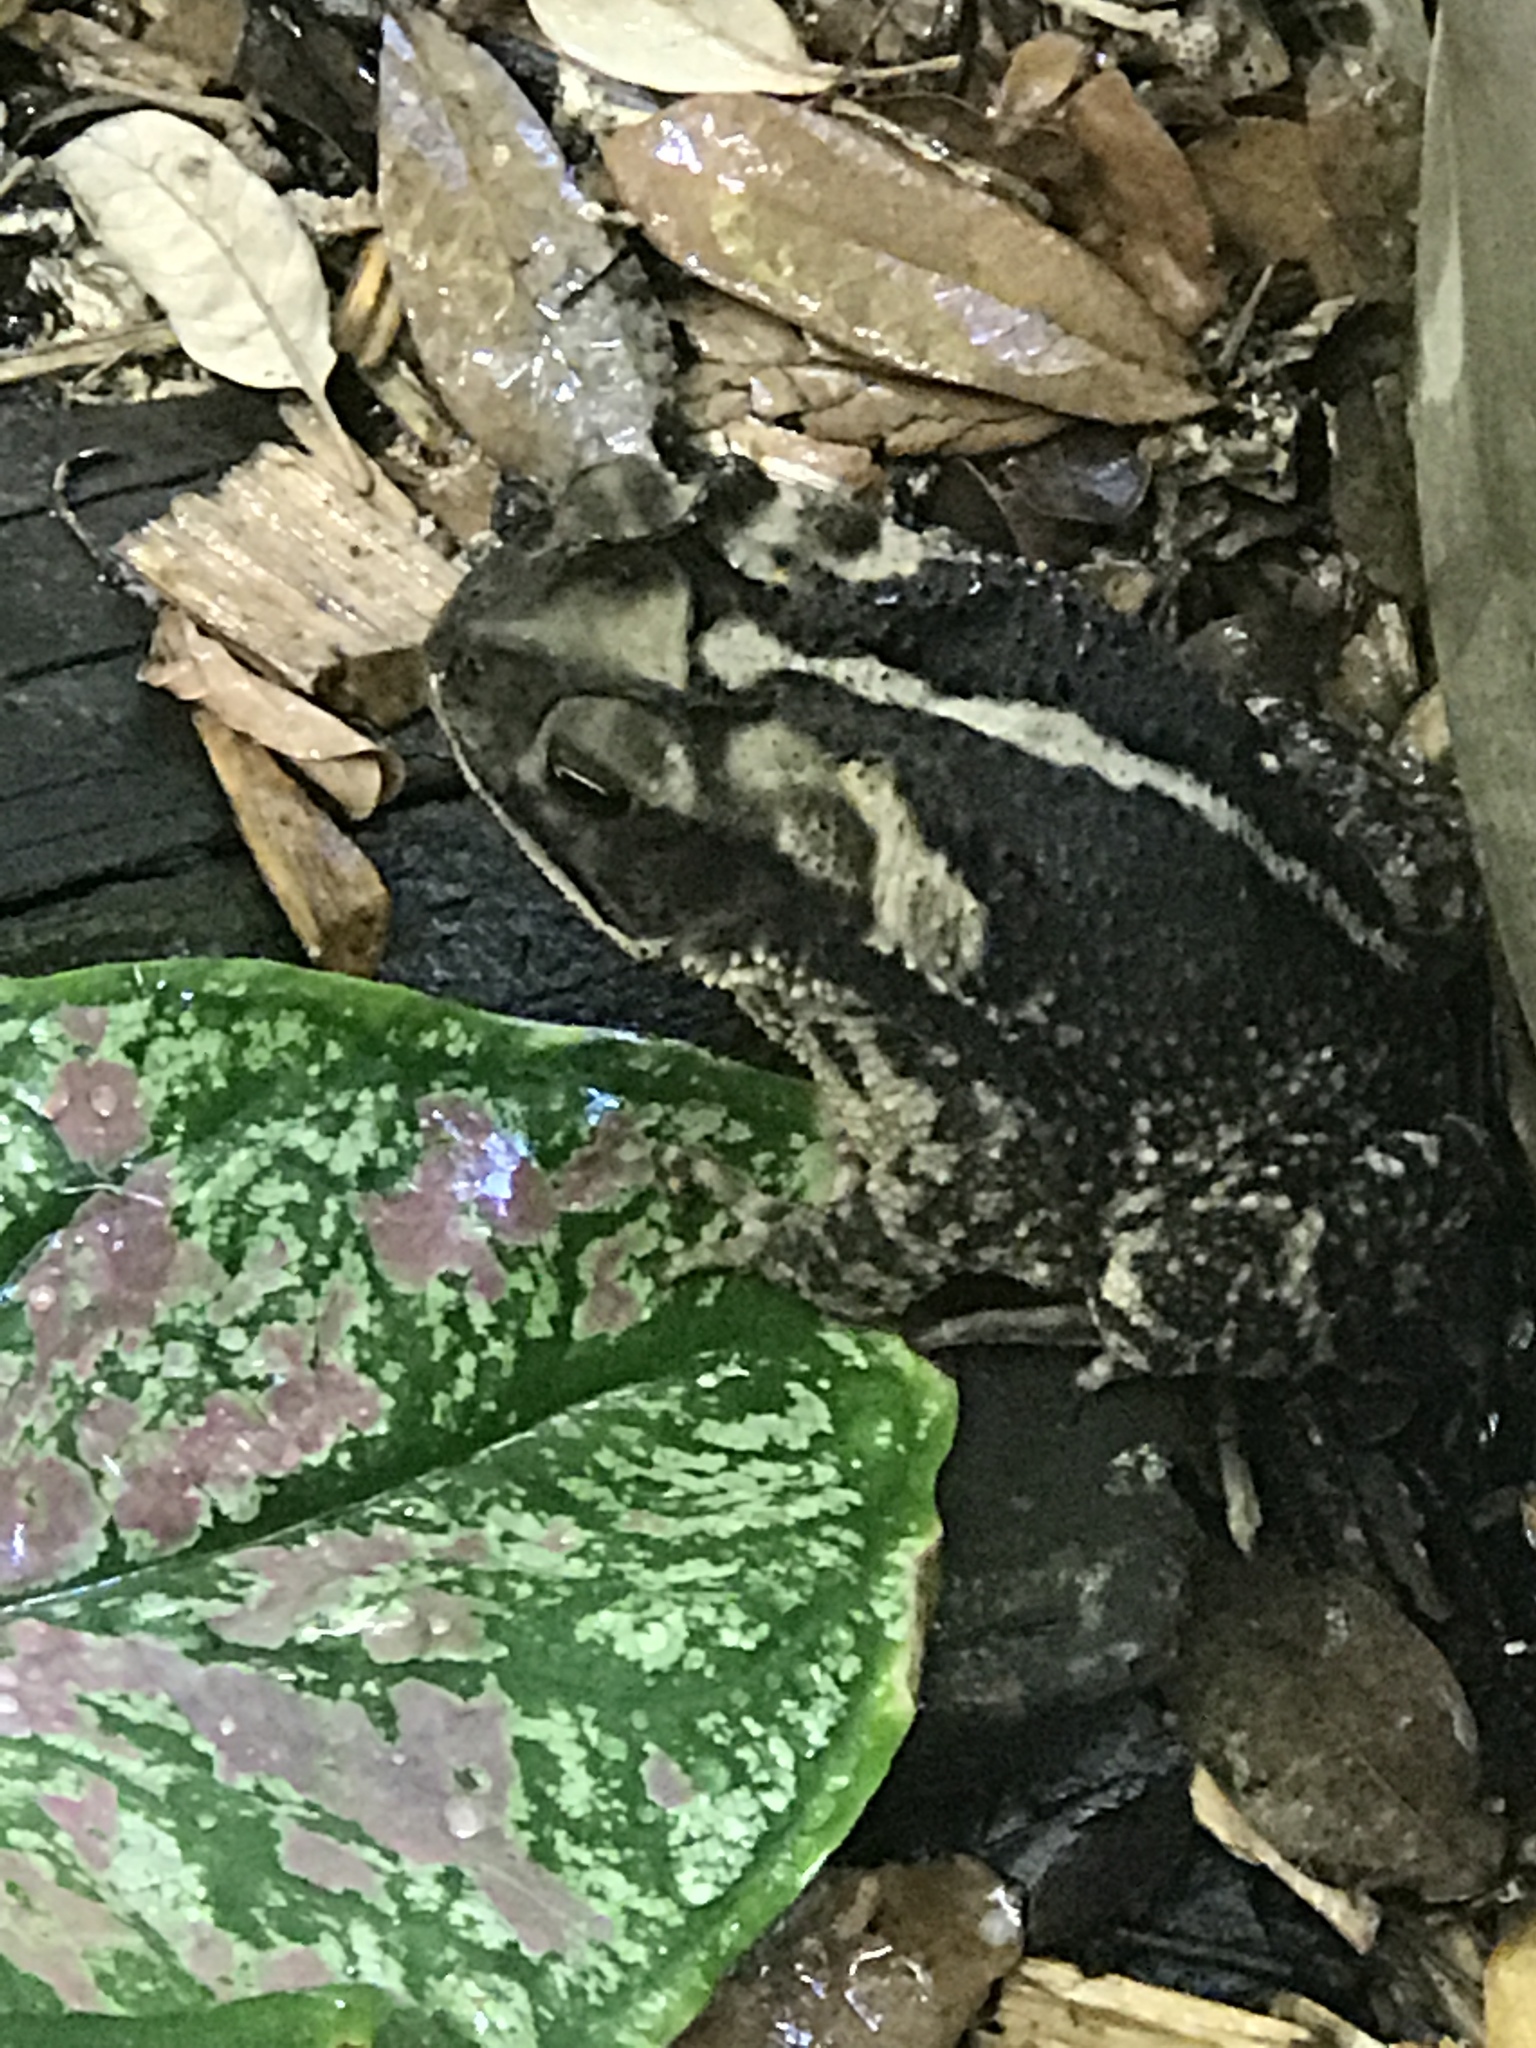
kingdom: Animalia
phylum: Chordata
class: Amphibia
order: Anura
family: Bufonidae
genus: Incilius
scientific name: Incilius nebulifer
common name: Gulf coast toad
